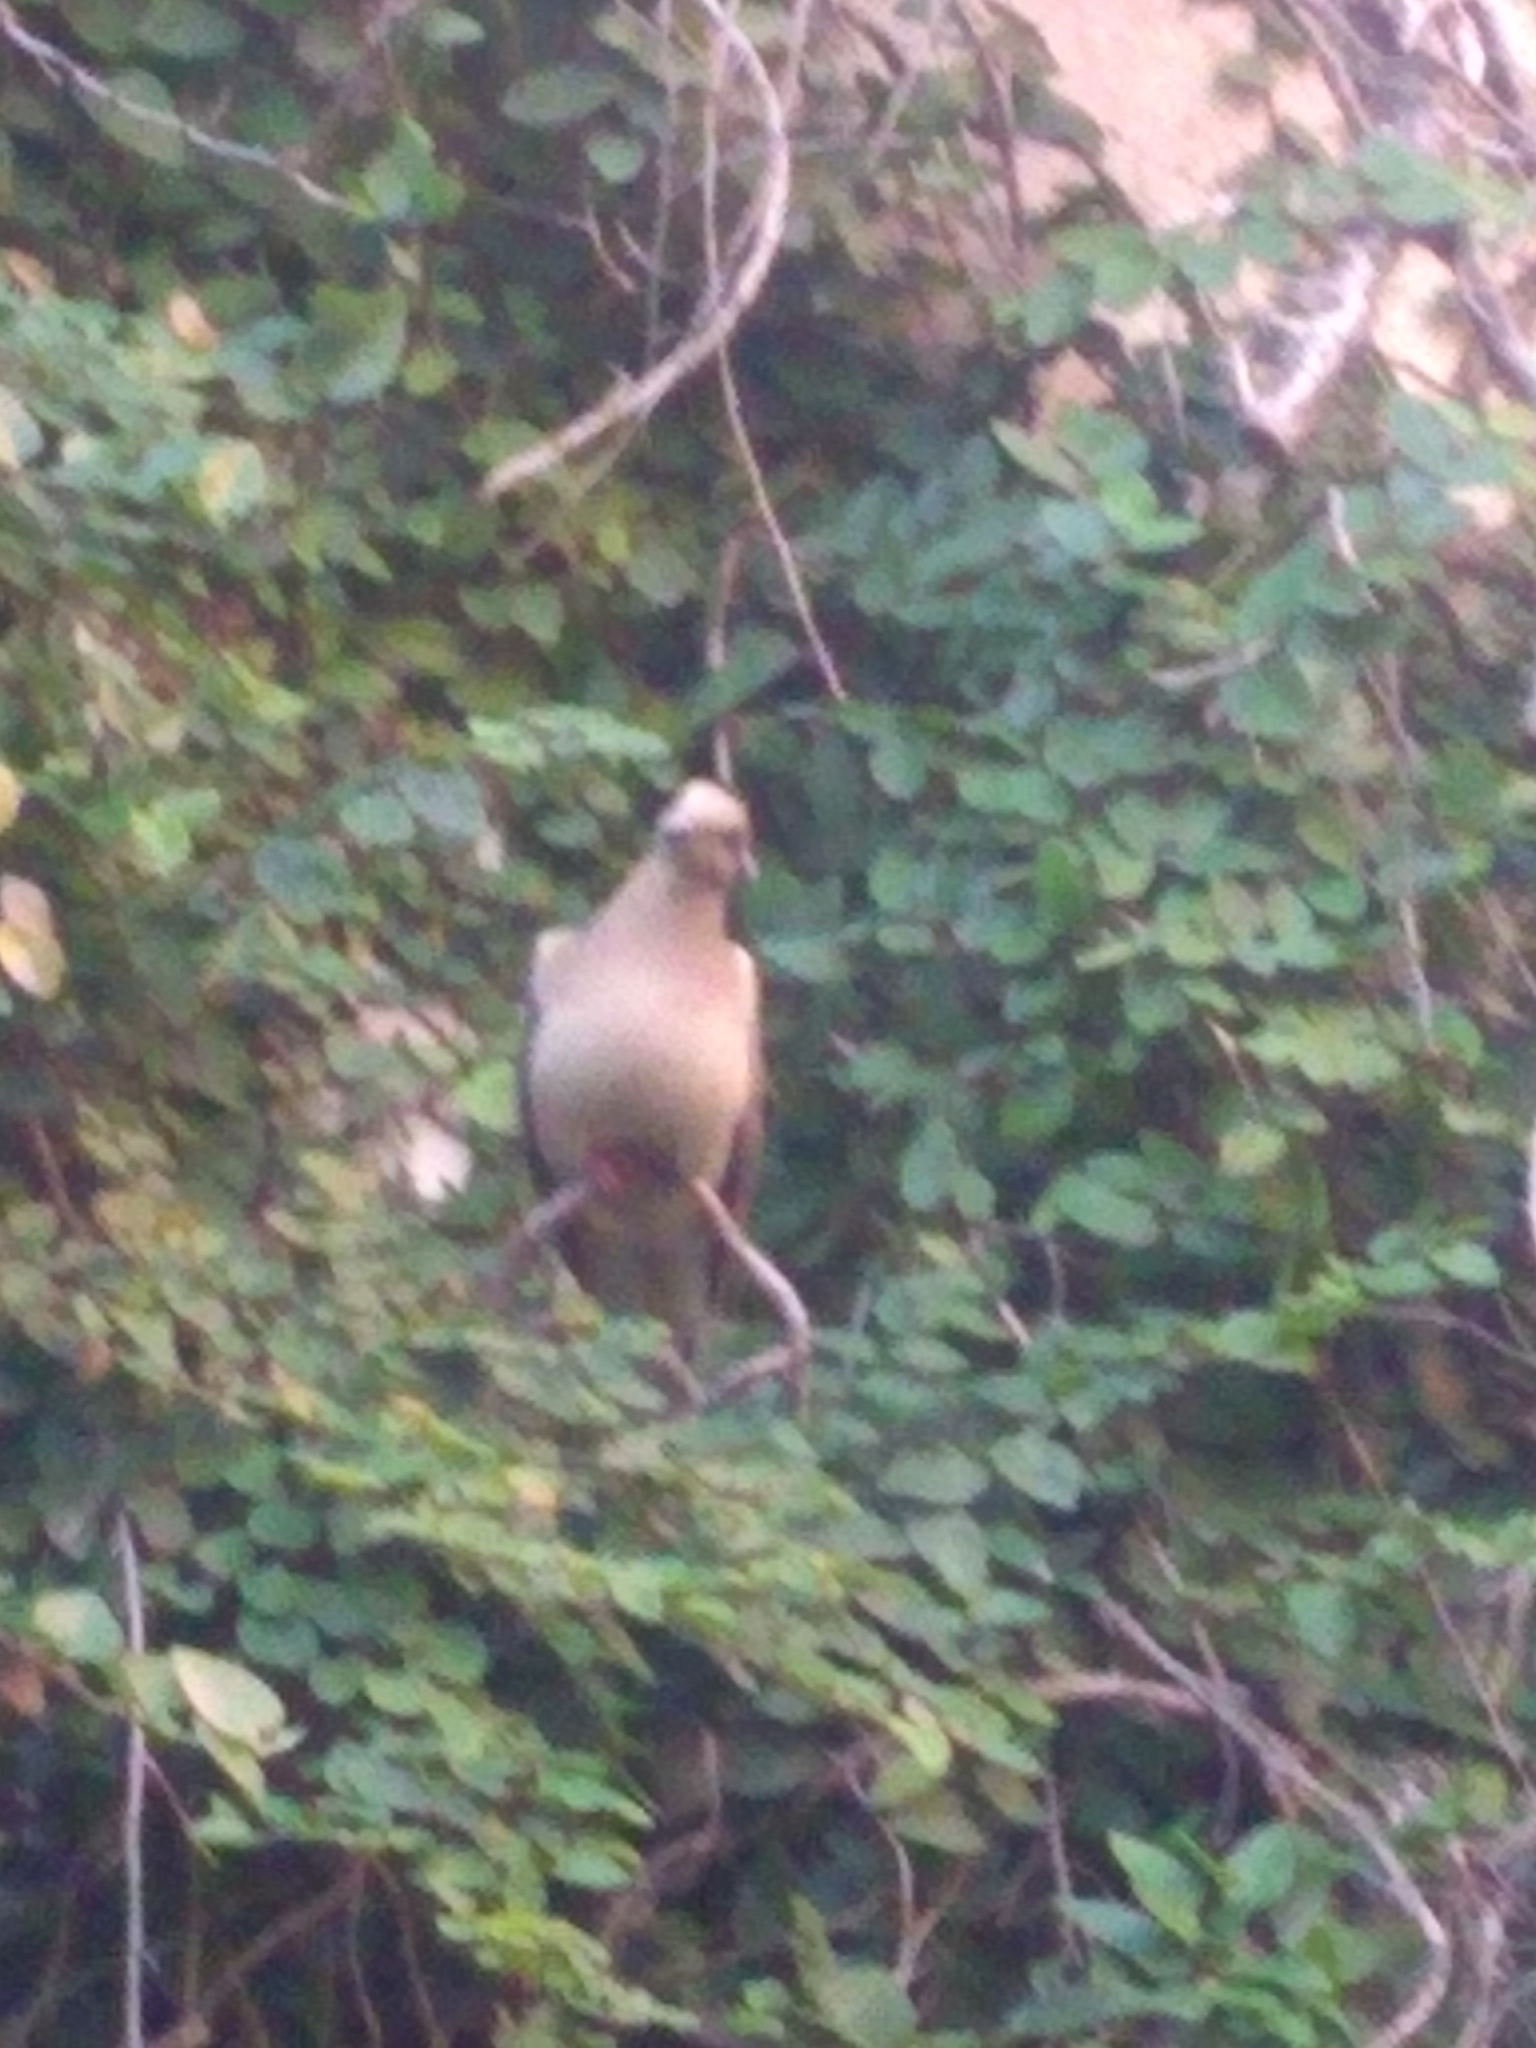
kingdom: Animalia
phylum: Chordata
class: Aves
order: Columbiformes
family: Columbidae
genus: Zenaida
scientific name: Zenaida auriculata
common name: Eared dove
